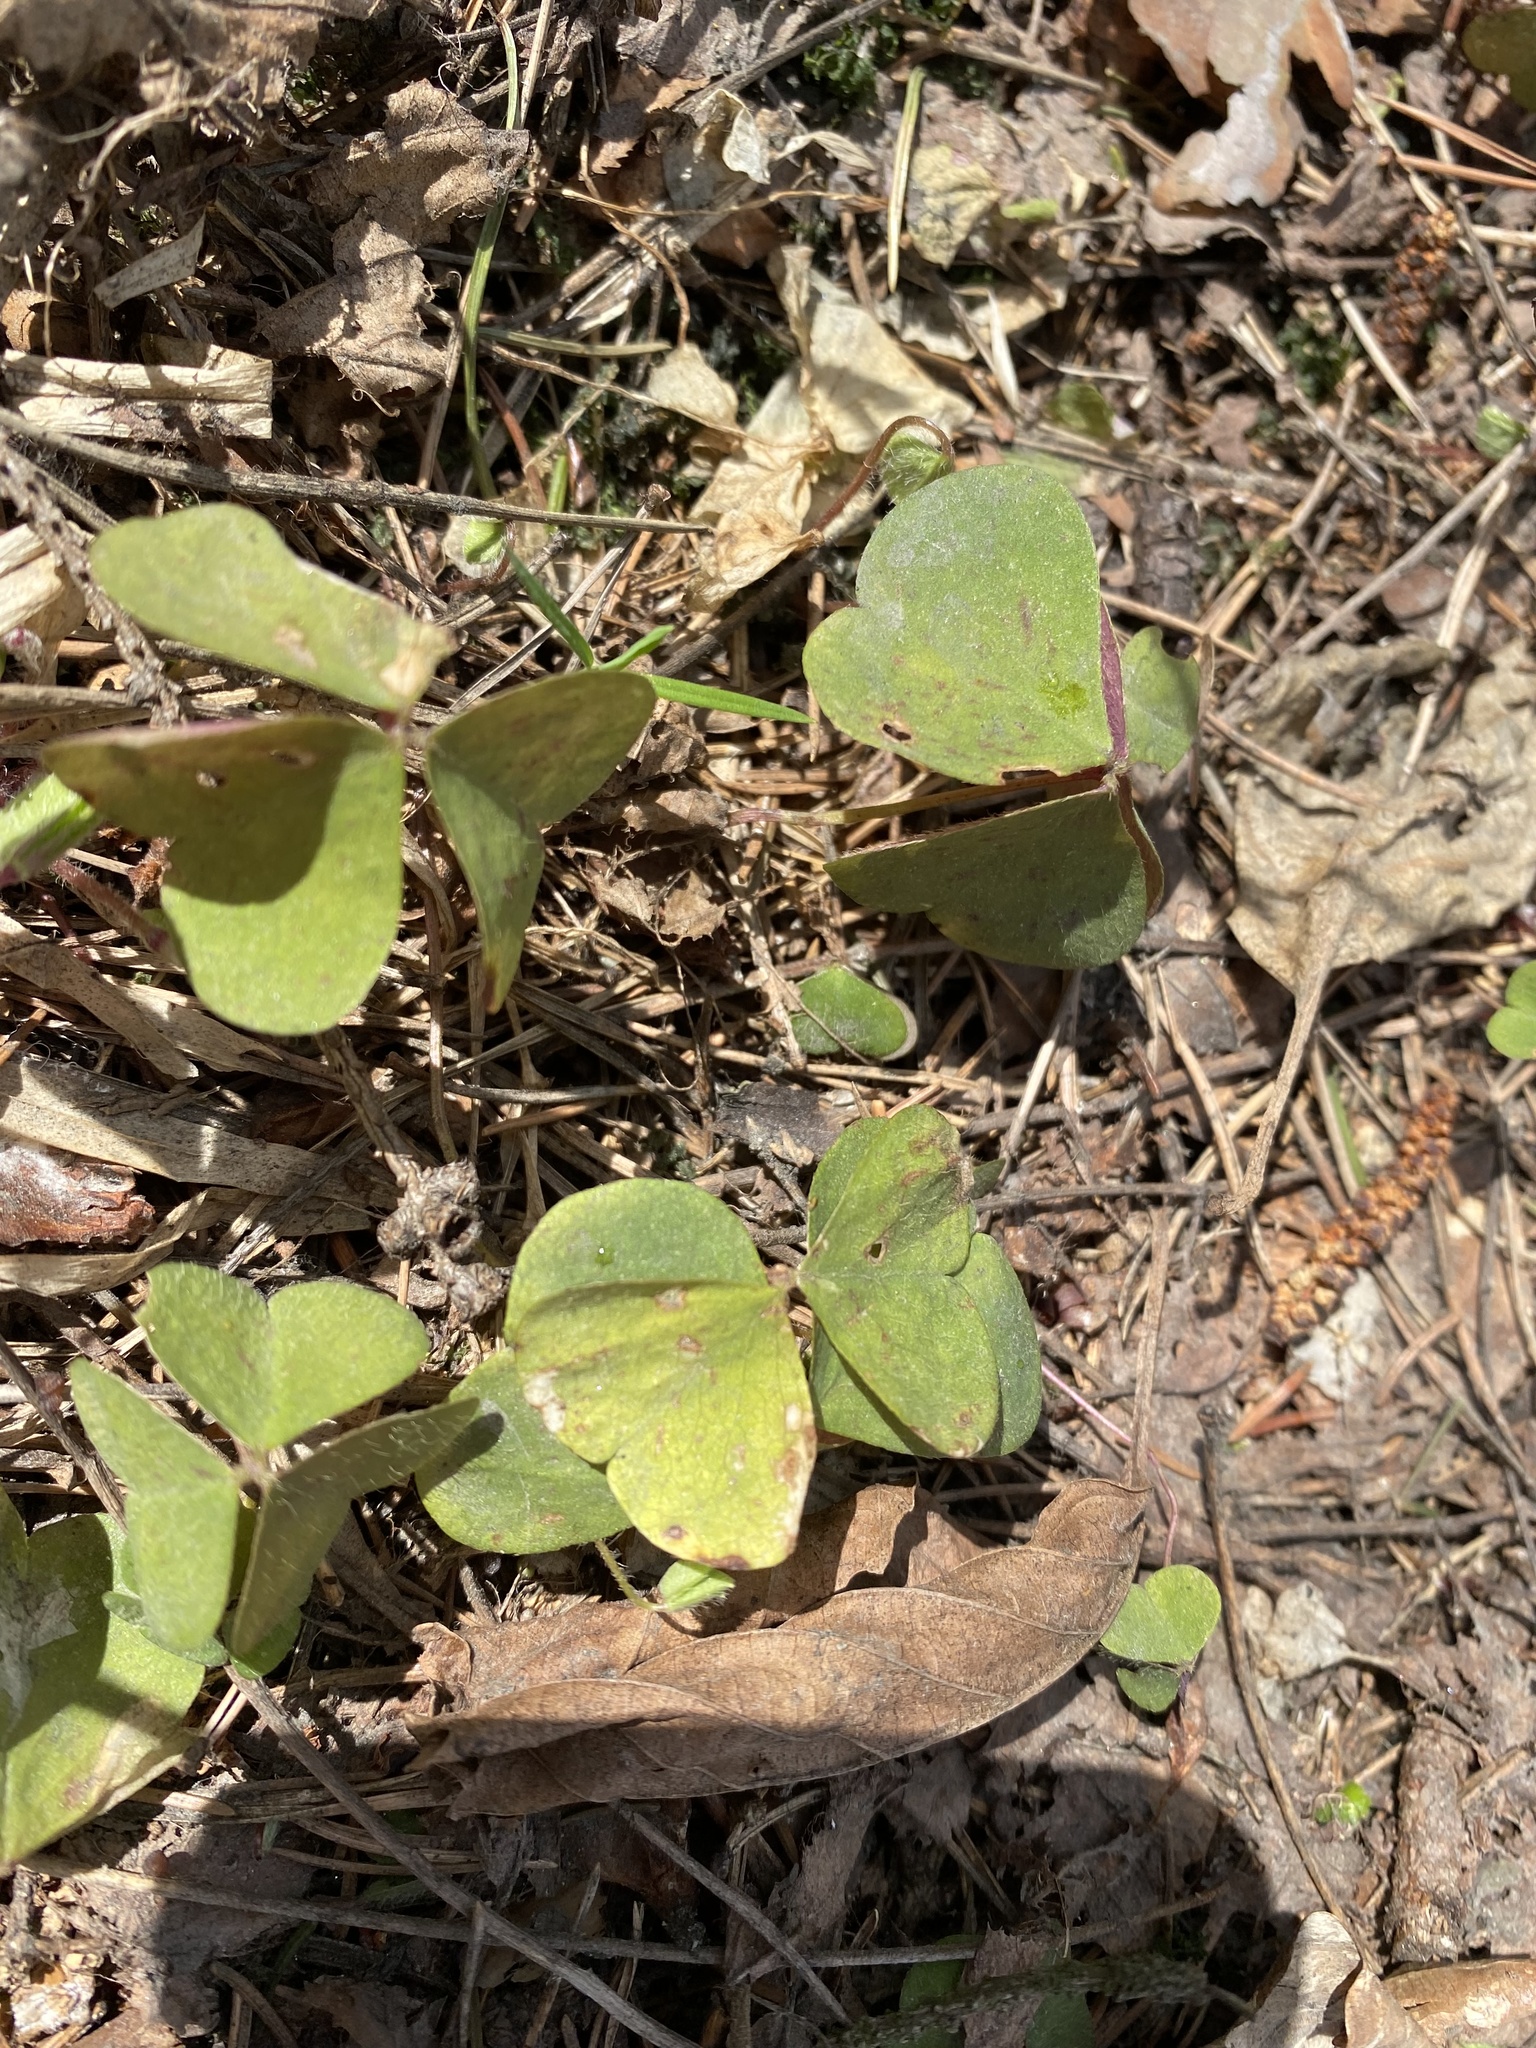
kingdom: Plantae
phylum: Tracheophyta
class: Magnoliopsida
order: Oxalidales
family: Oxalidaceae
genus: Oxalis
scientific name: Oxalis acetosella
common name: Wood-sorrel
